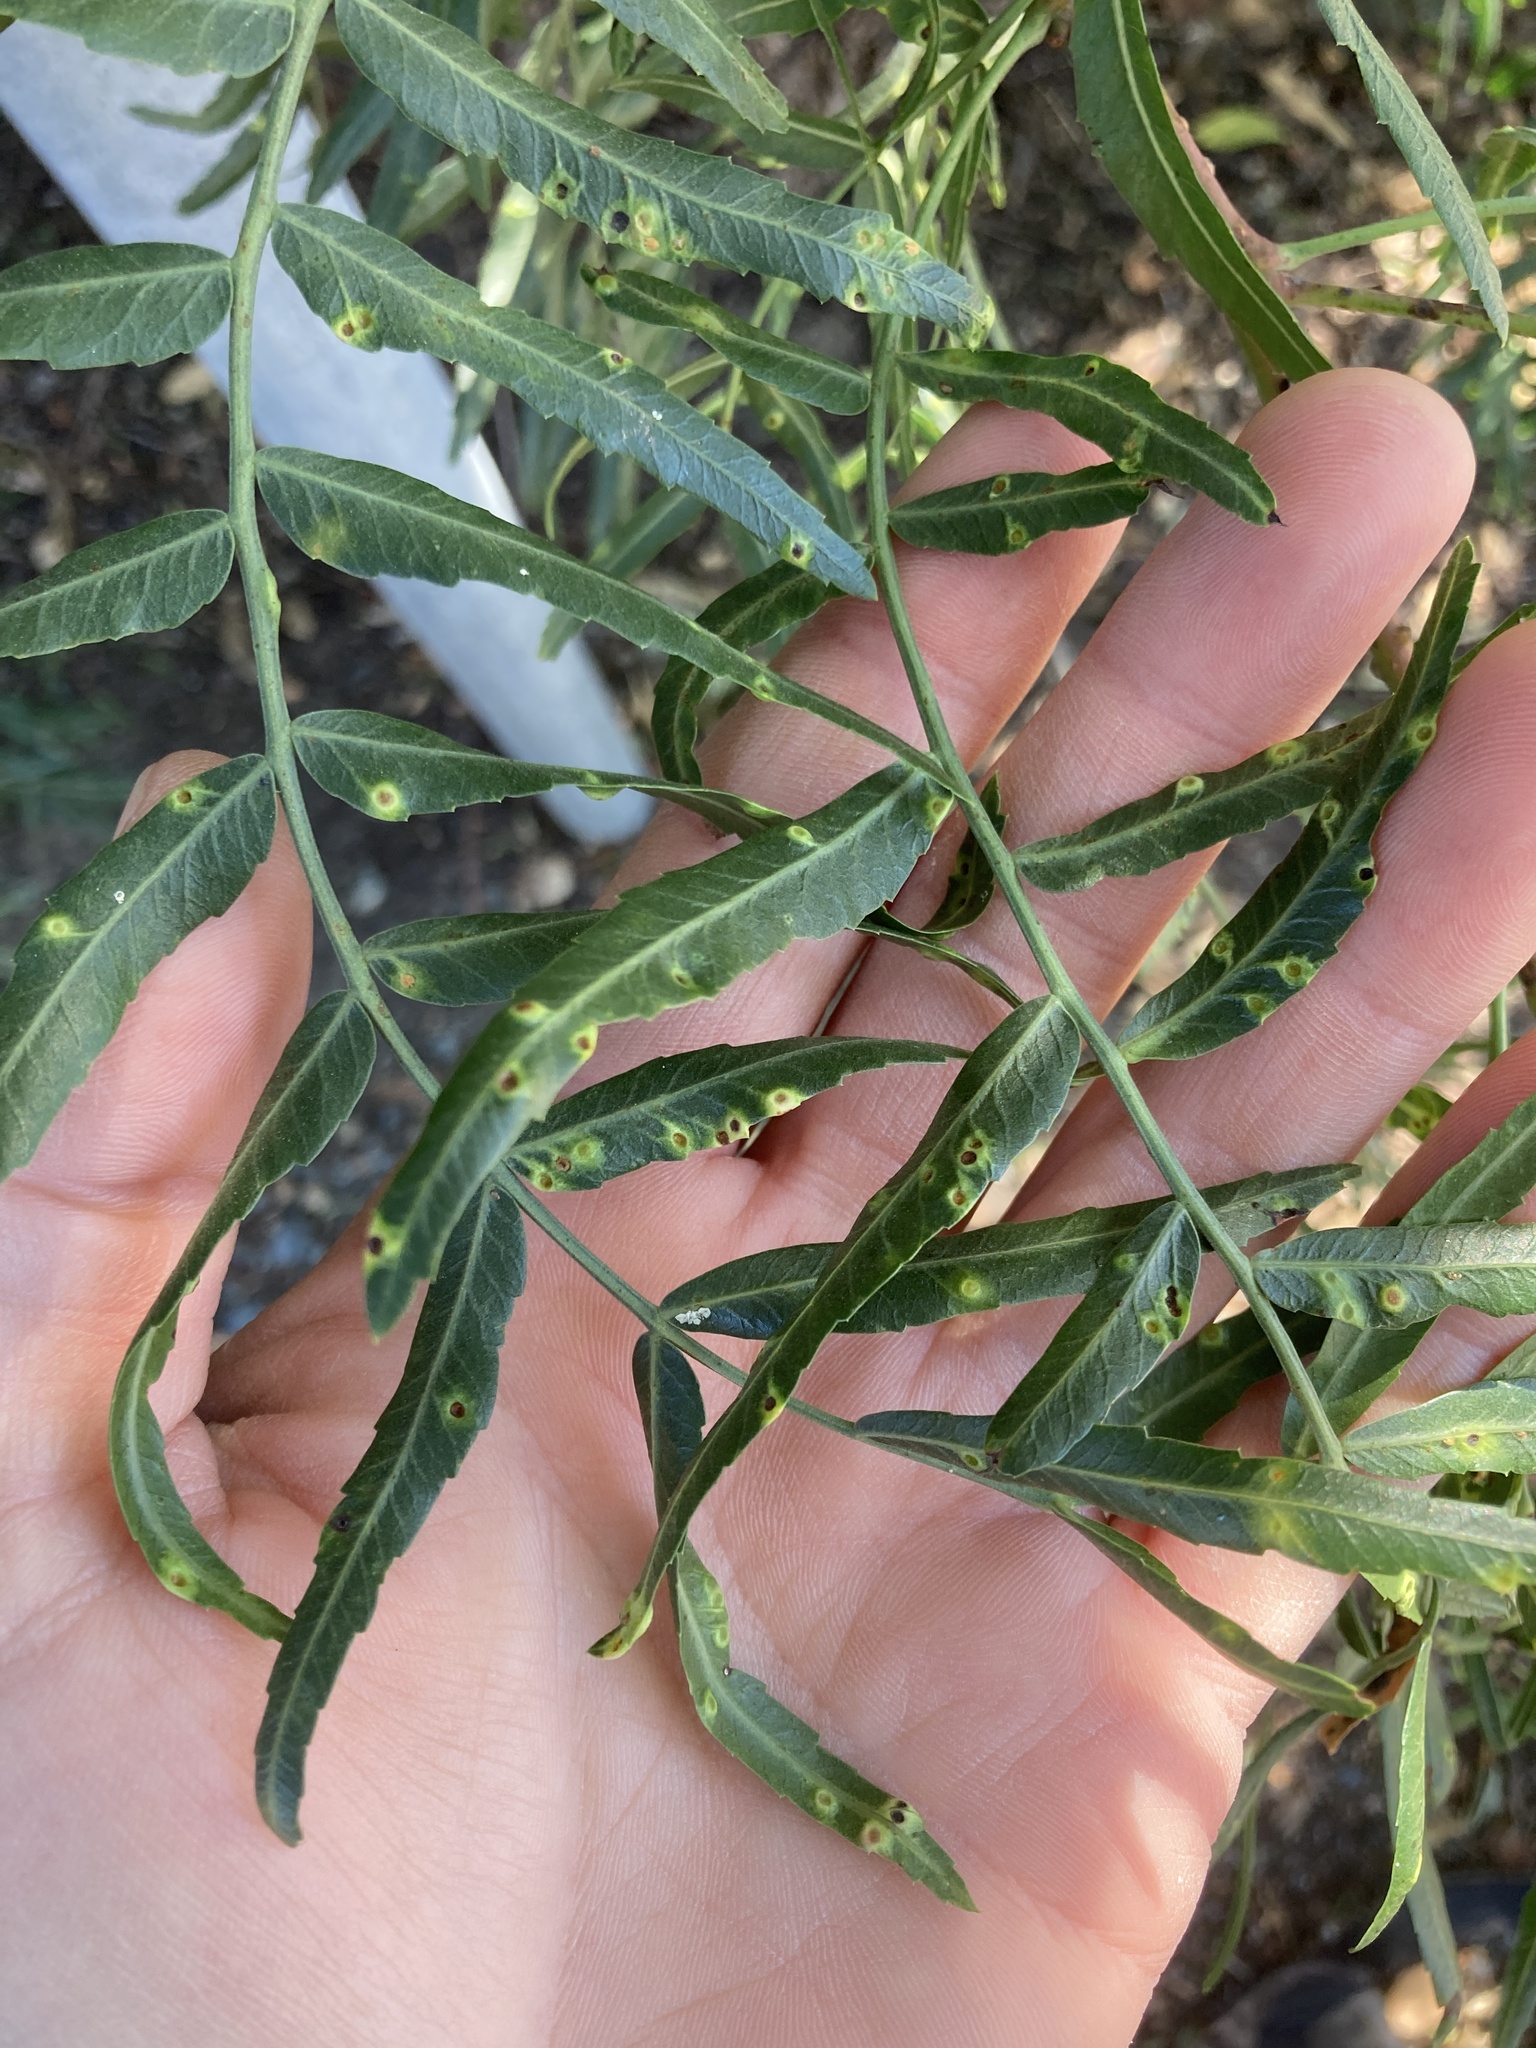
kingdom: Animalia
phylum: Arthropoda
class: Insecta
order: Hemiptera
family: Calophyidae
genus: Calophya
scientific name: Calophya schini
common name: Pepper tree psyllid
